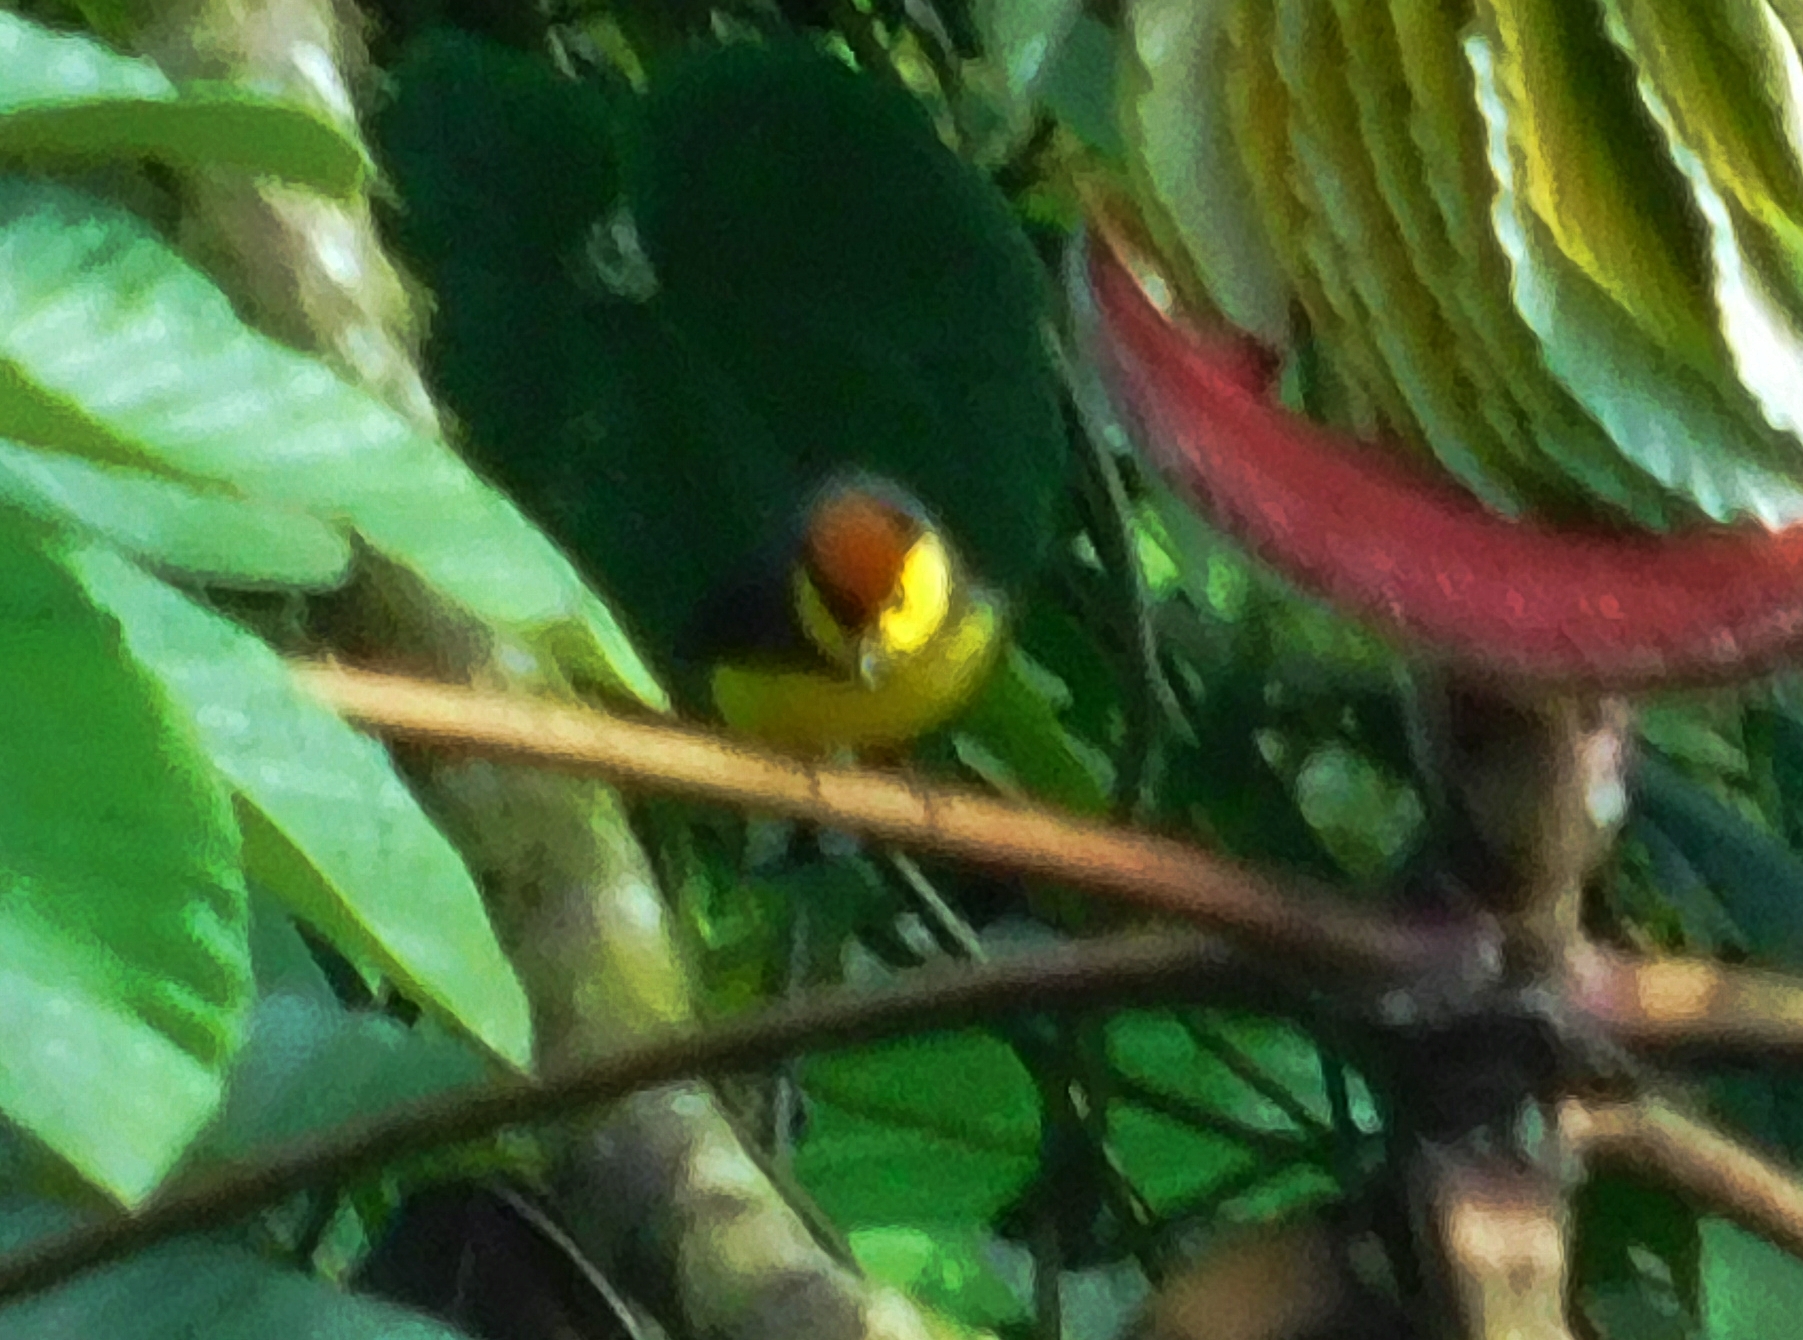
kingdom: Animalia
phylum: Chordata
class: Aves
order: Passeriformes
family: Parulidae
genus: Myioborus
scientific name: Myioborus torquatus
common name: Collared whitestart
